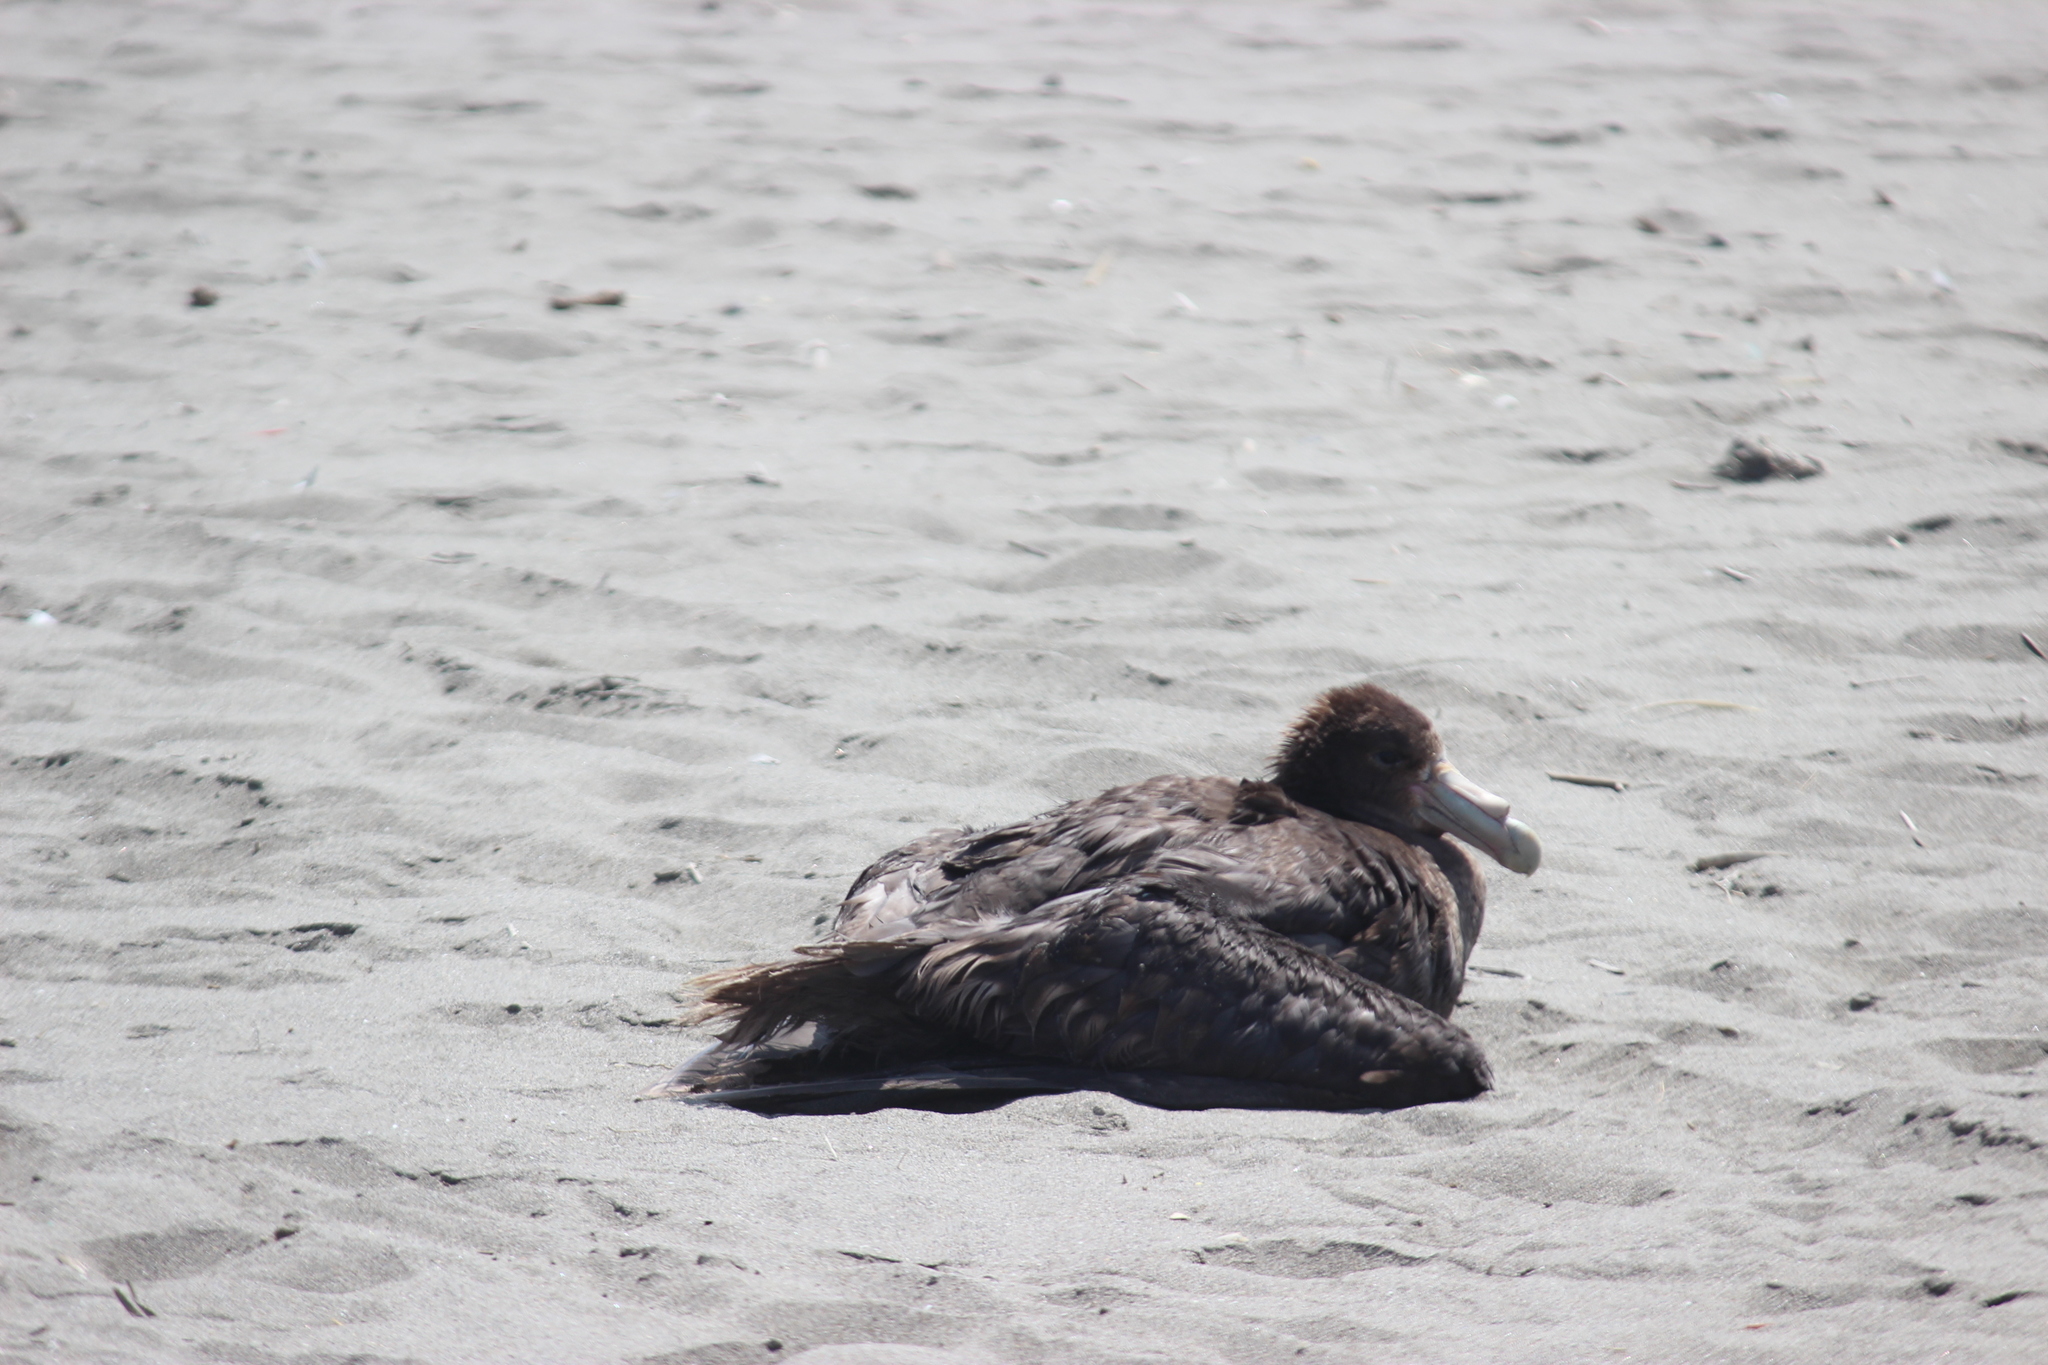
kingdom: Animalia
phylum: Chordata
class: Aves
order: Procellariiformes
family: Procellariidae
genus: Macronectes
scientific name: Macronectes giganteus
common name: Southern giant petrel
